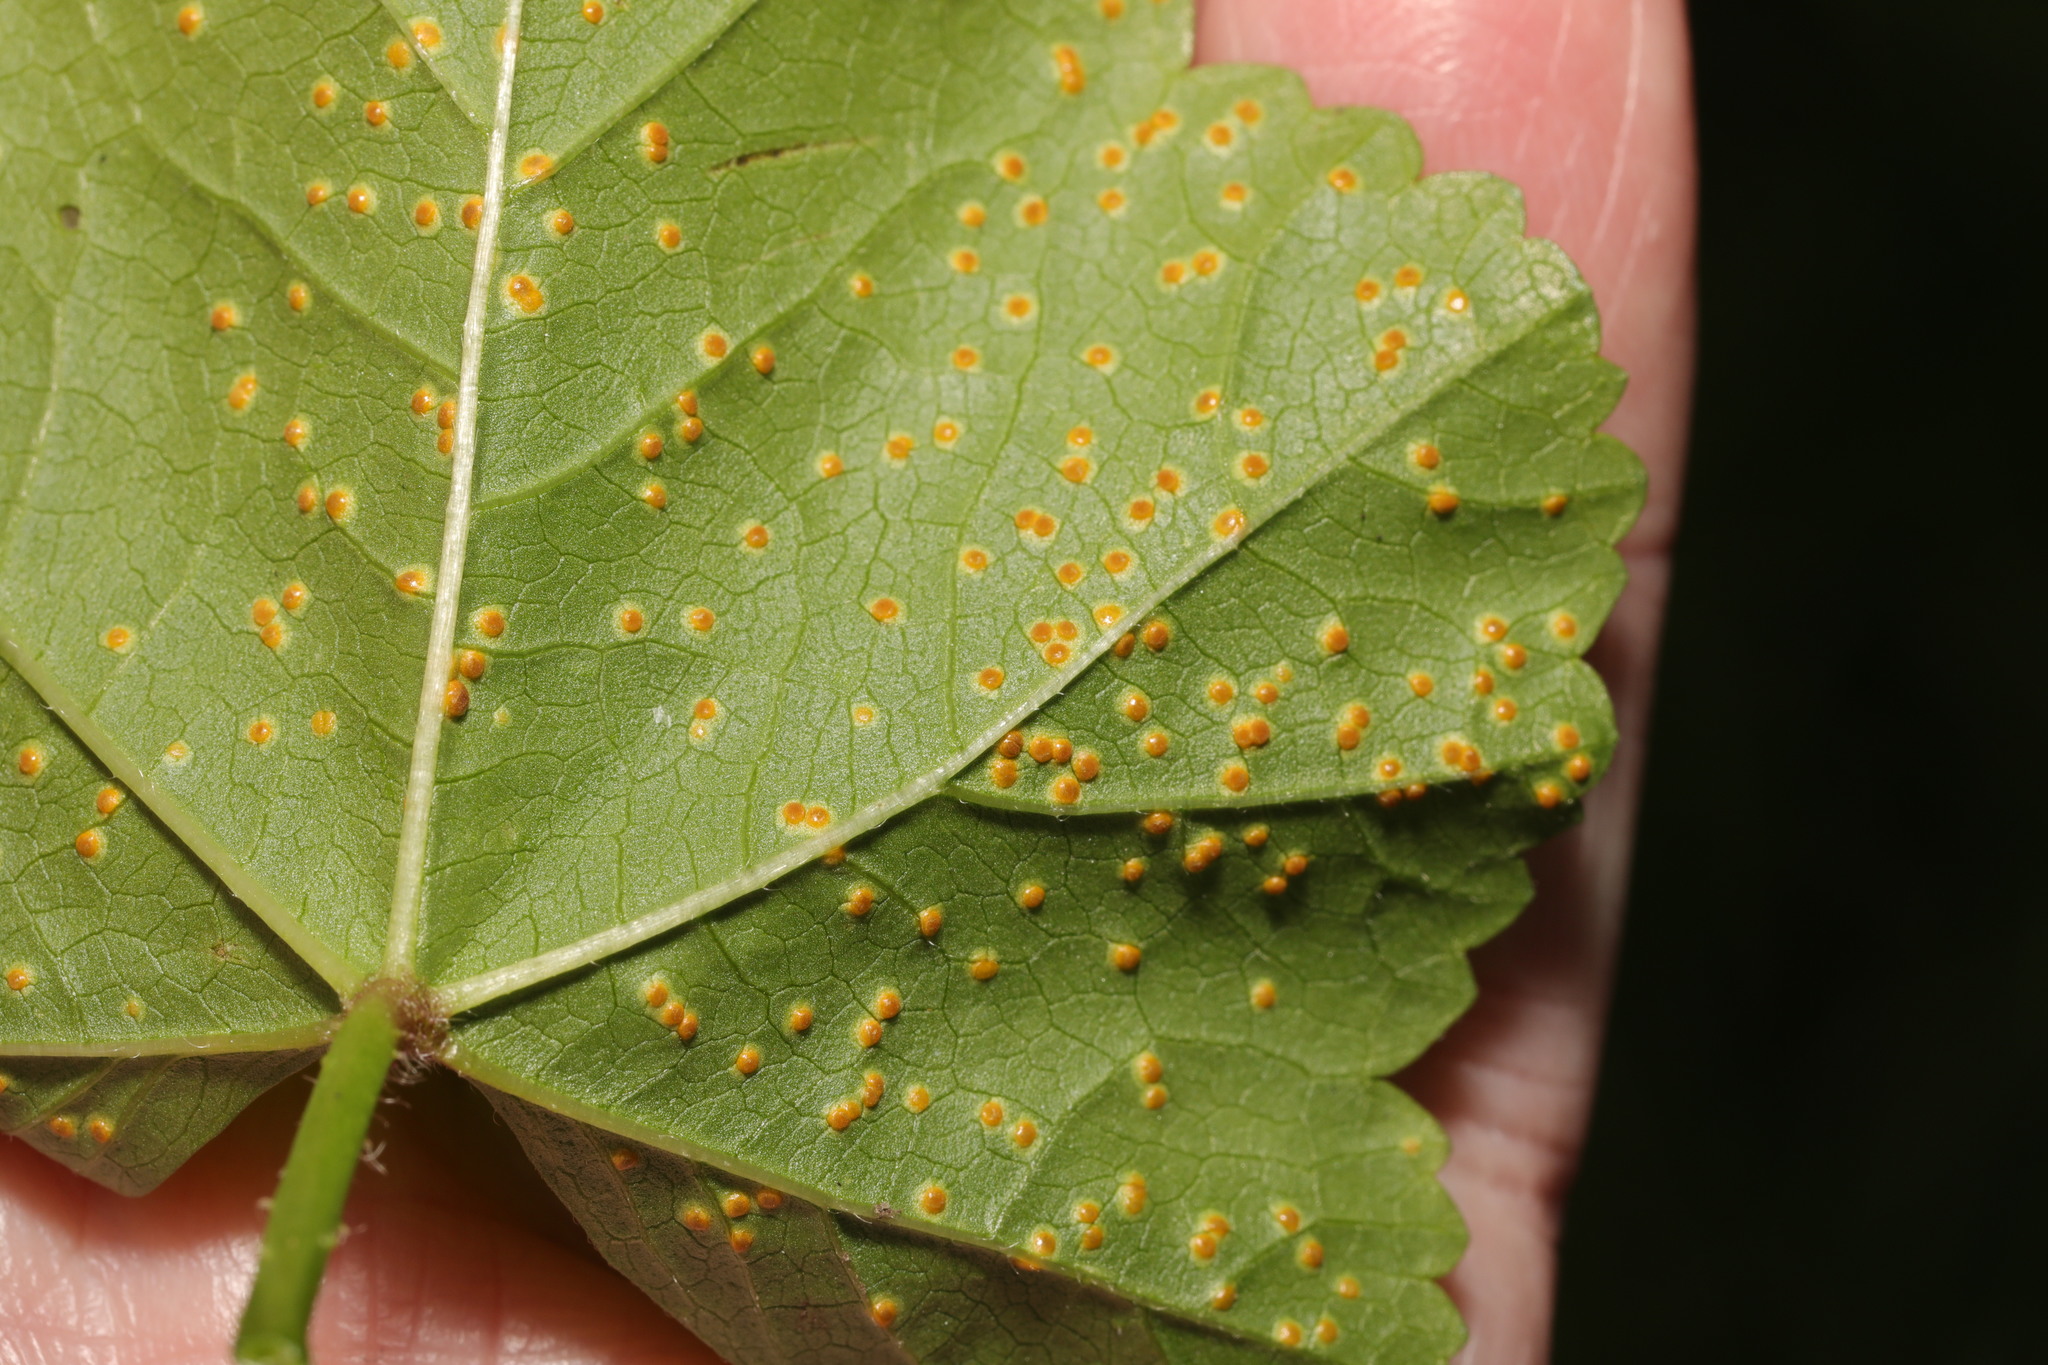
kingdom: Fungi
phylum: Basidiomycota
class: Pucciniomycetes
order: Pucciniales
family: Pucciniaceae
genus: Puccinia
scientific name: Puccinia malvacearum
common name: Hollyhock rust
